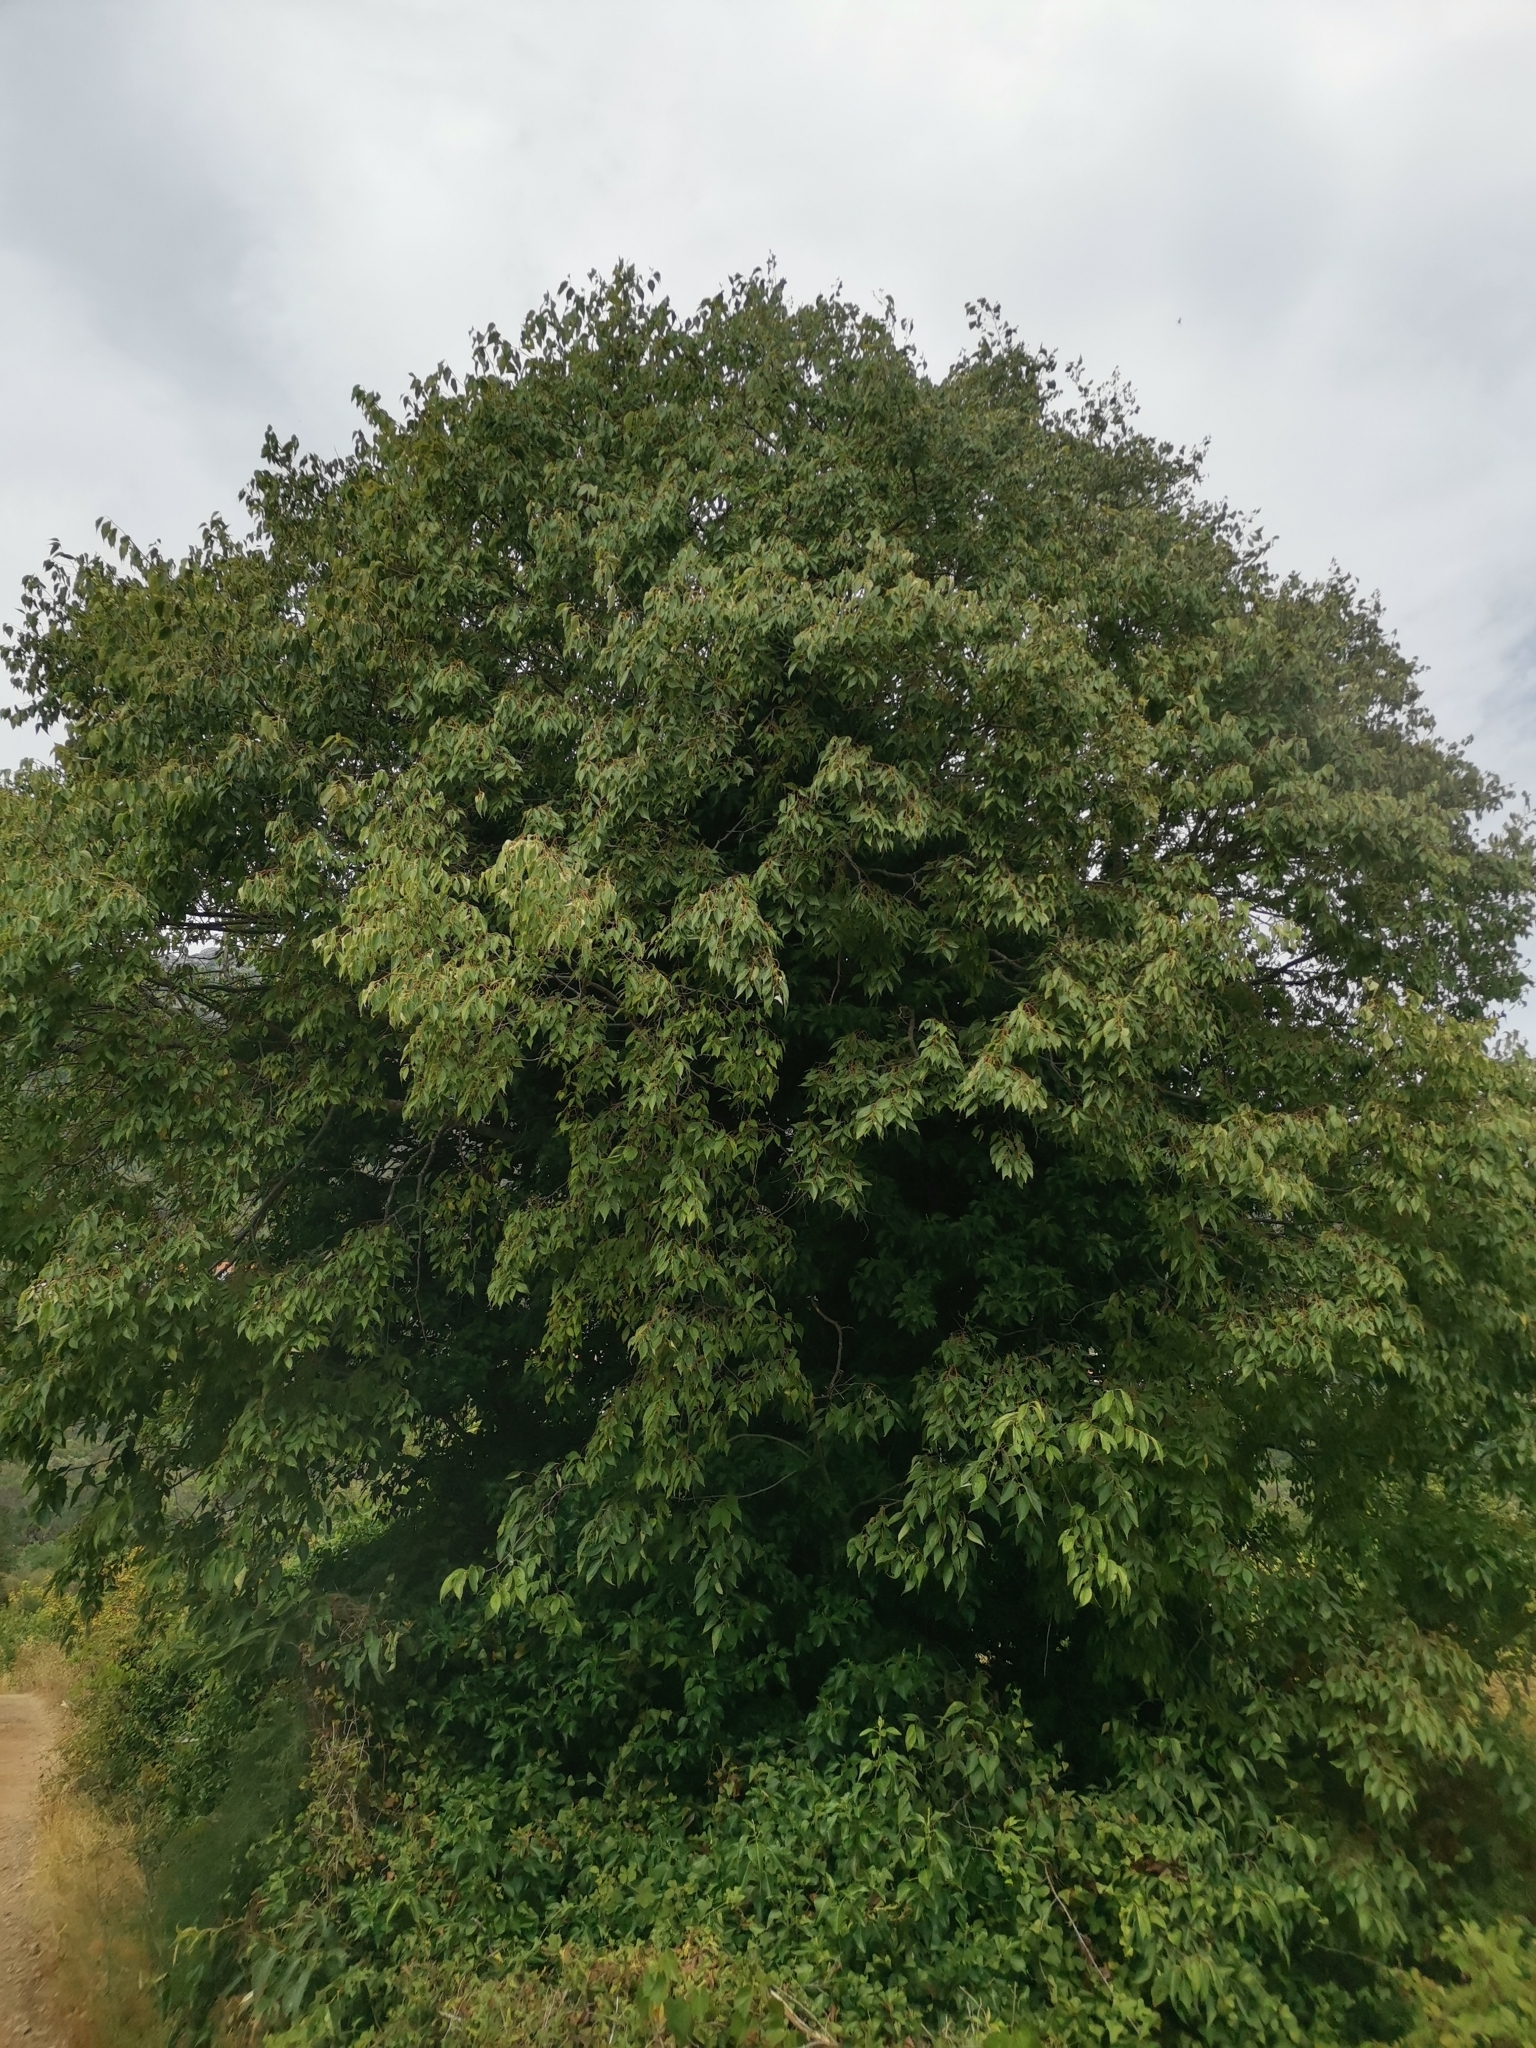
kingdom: Plantae
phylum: Tracheophyta
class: Magnoliopsida
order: Rosales
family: Cannabaceae
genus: Celtis
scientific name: Celtis australis
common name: European hackberry
